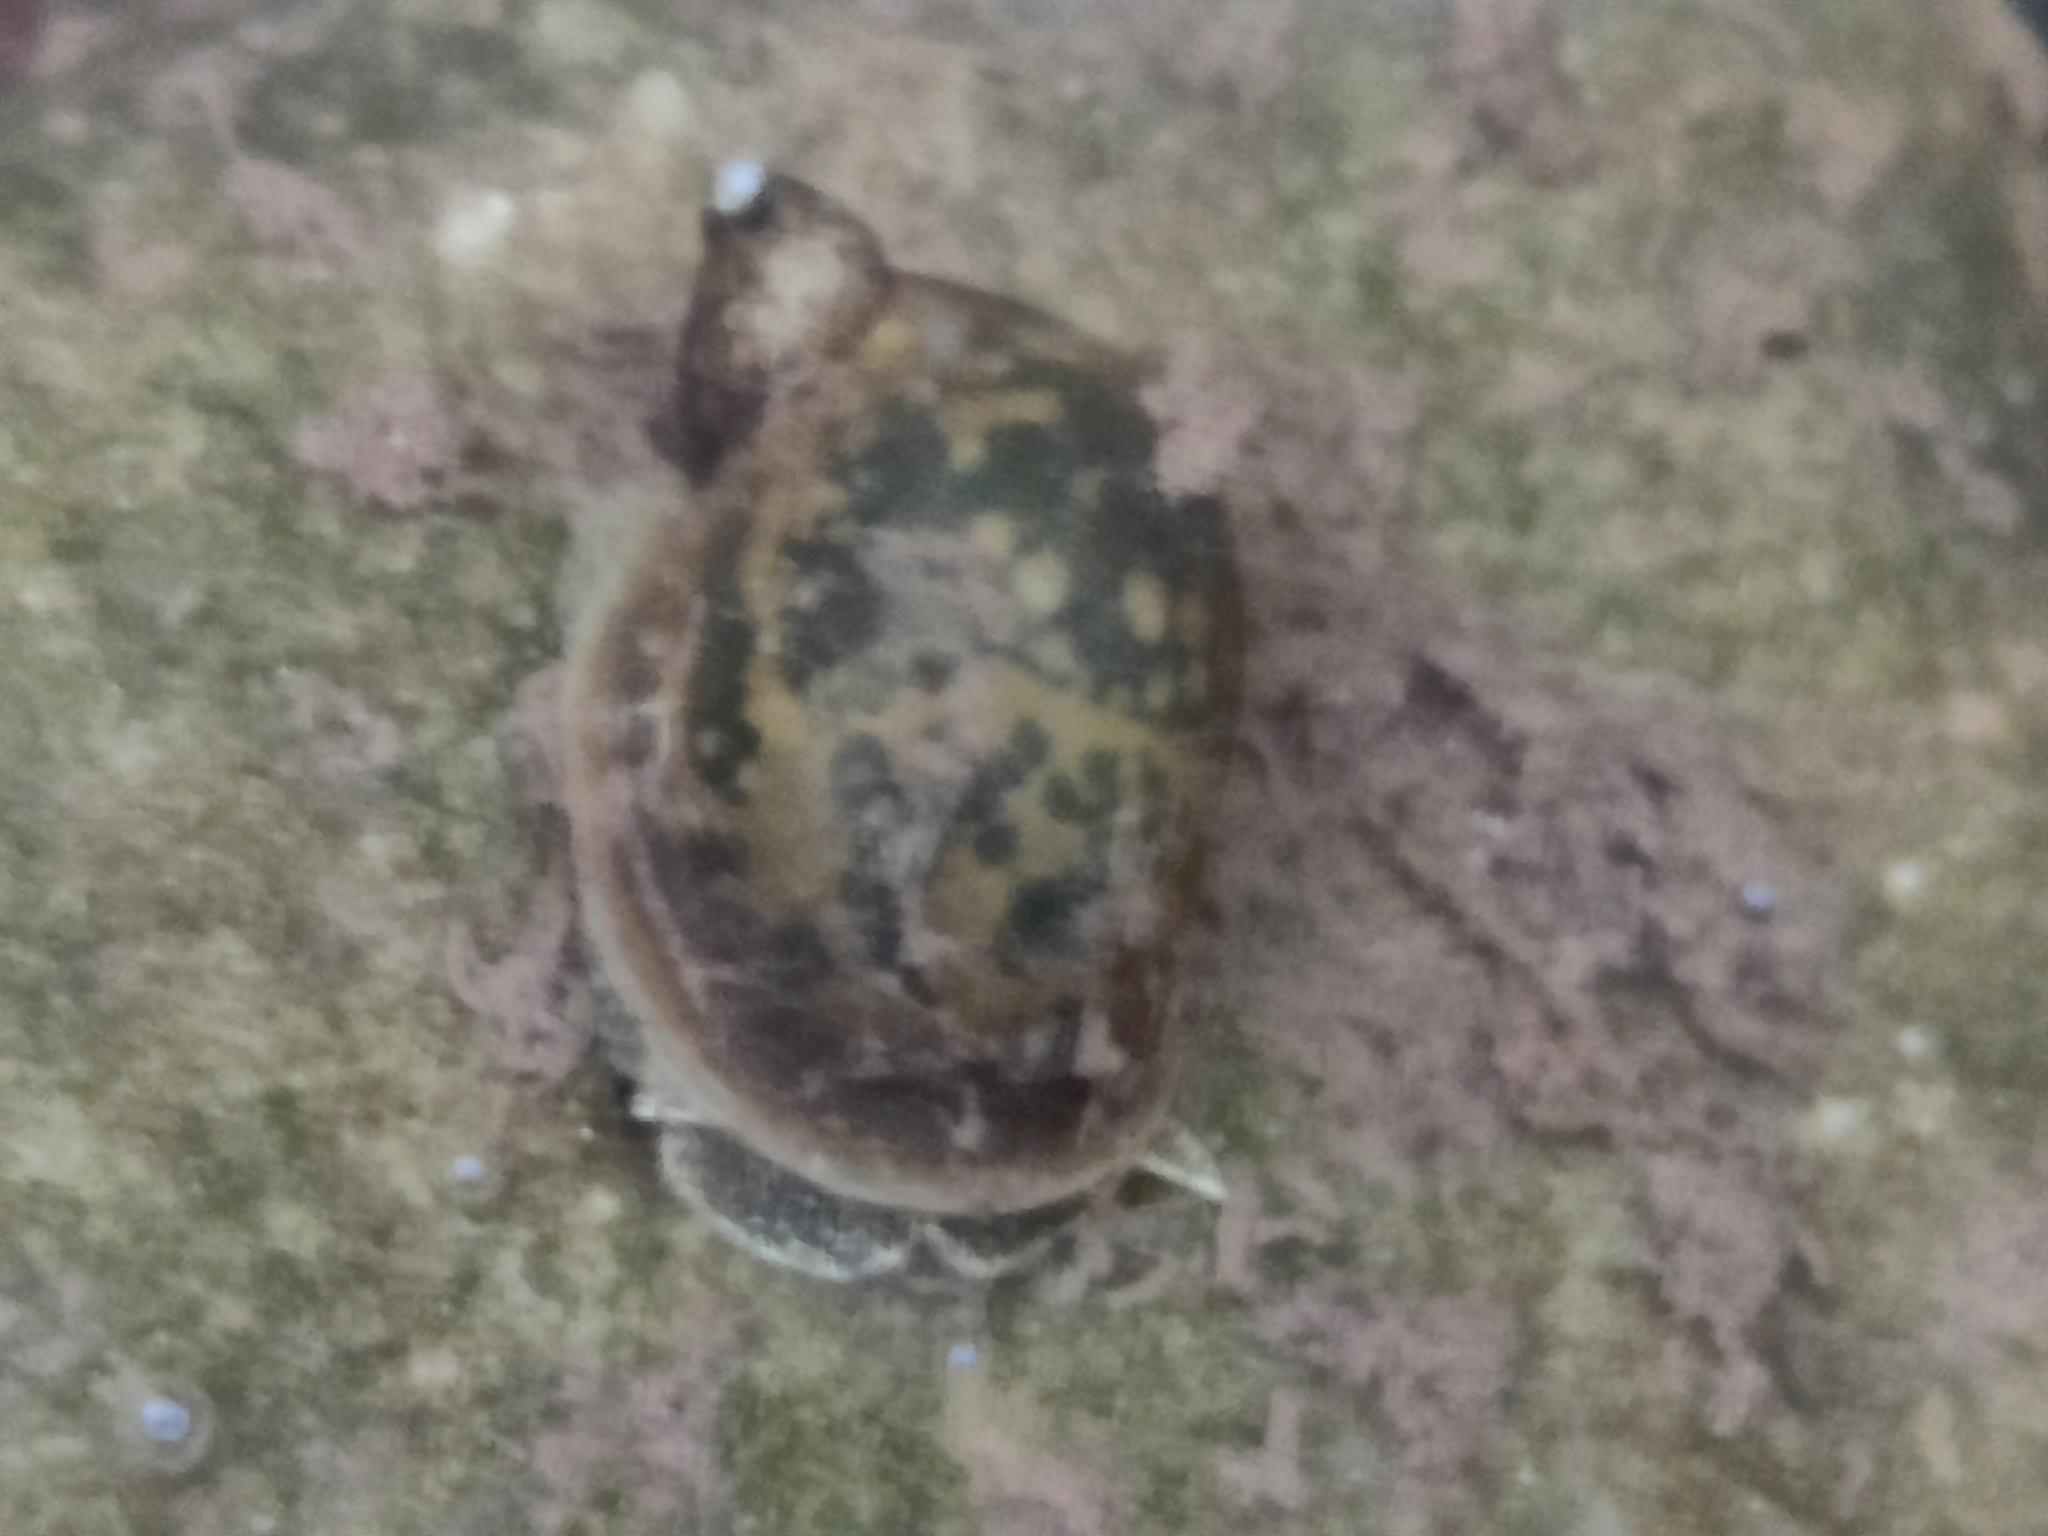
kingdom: Animalia
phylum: Mollusca
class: Gastropoda
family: Lymnaeidae
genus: Ampullaceana
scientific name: Ampullaceana balthica
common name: Wandering pond snail
